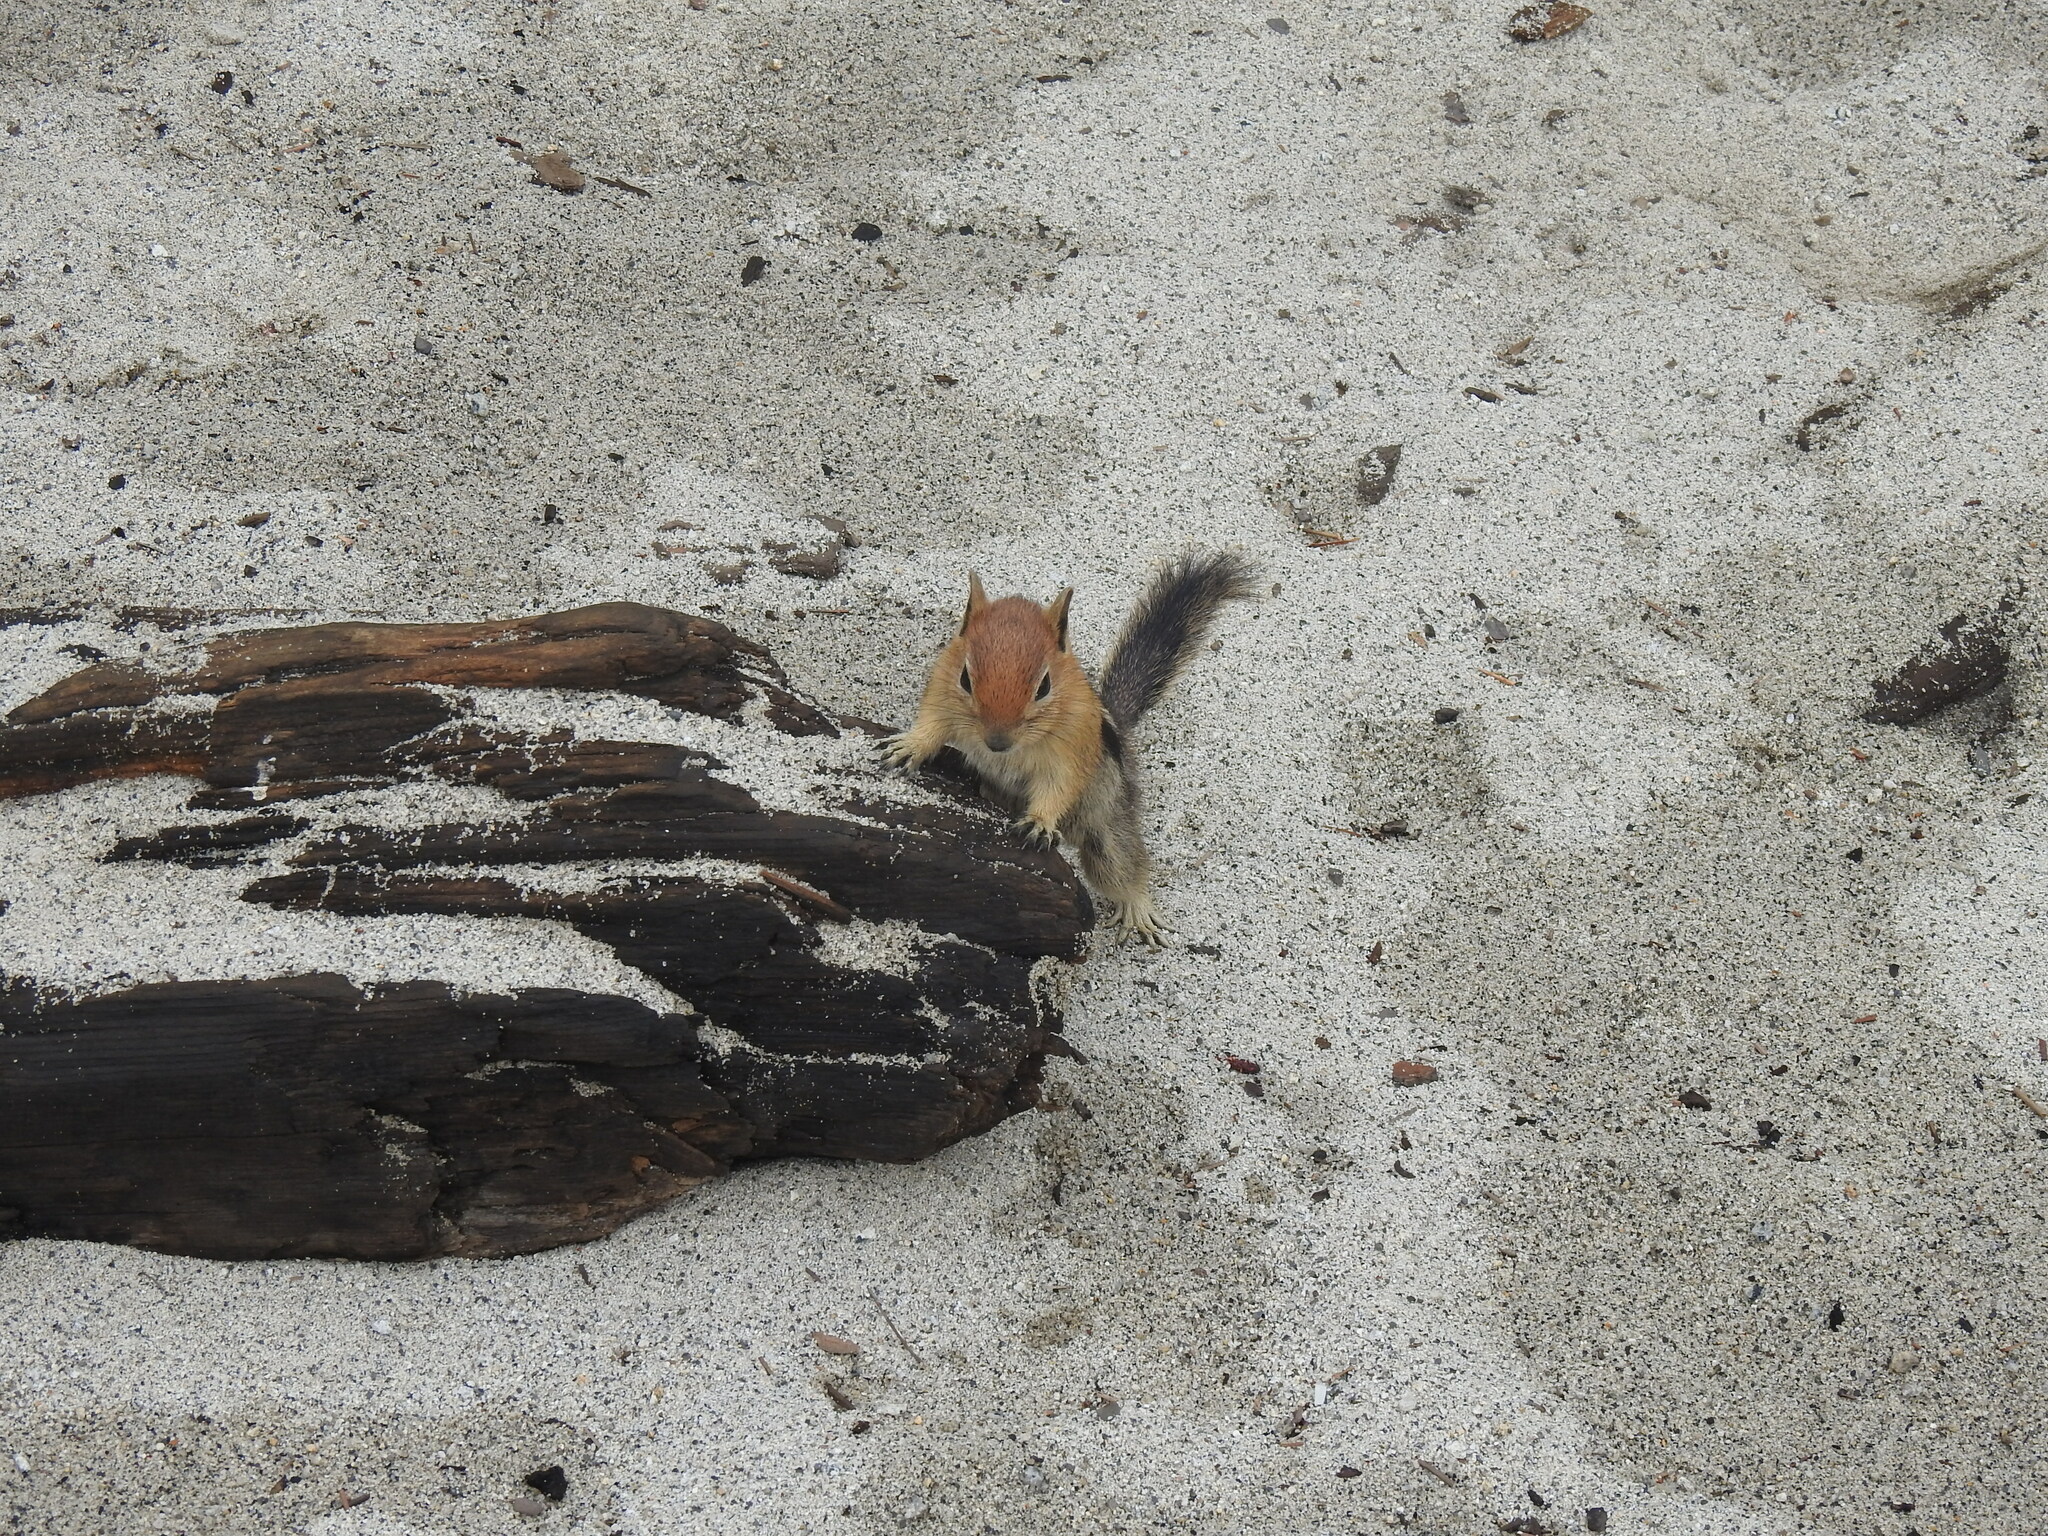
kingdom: Animalia
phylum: Chordata
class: Mammalia
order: Rodentia
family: Sciuridae
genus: Callospermophilus
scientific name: Callospermophilus lateralis
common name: Golden-mantled ground squirrel
